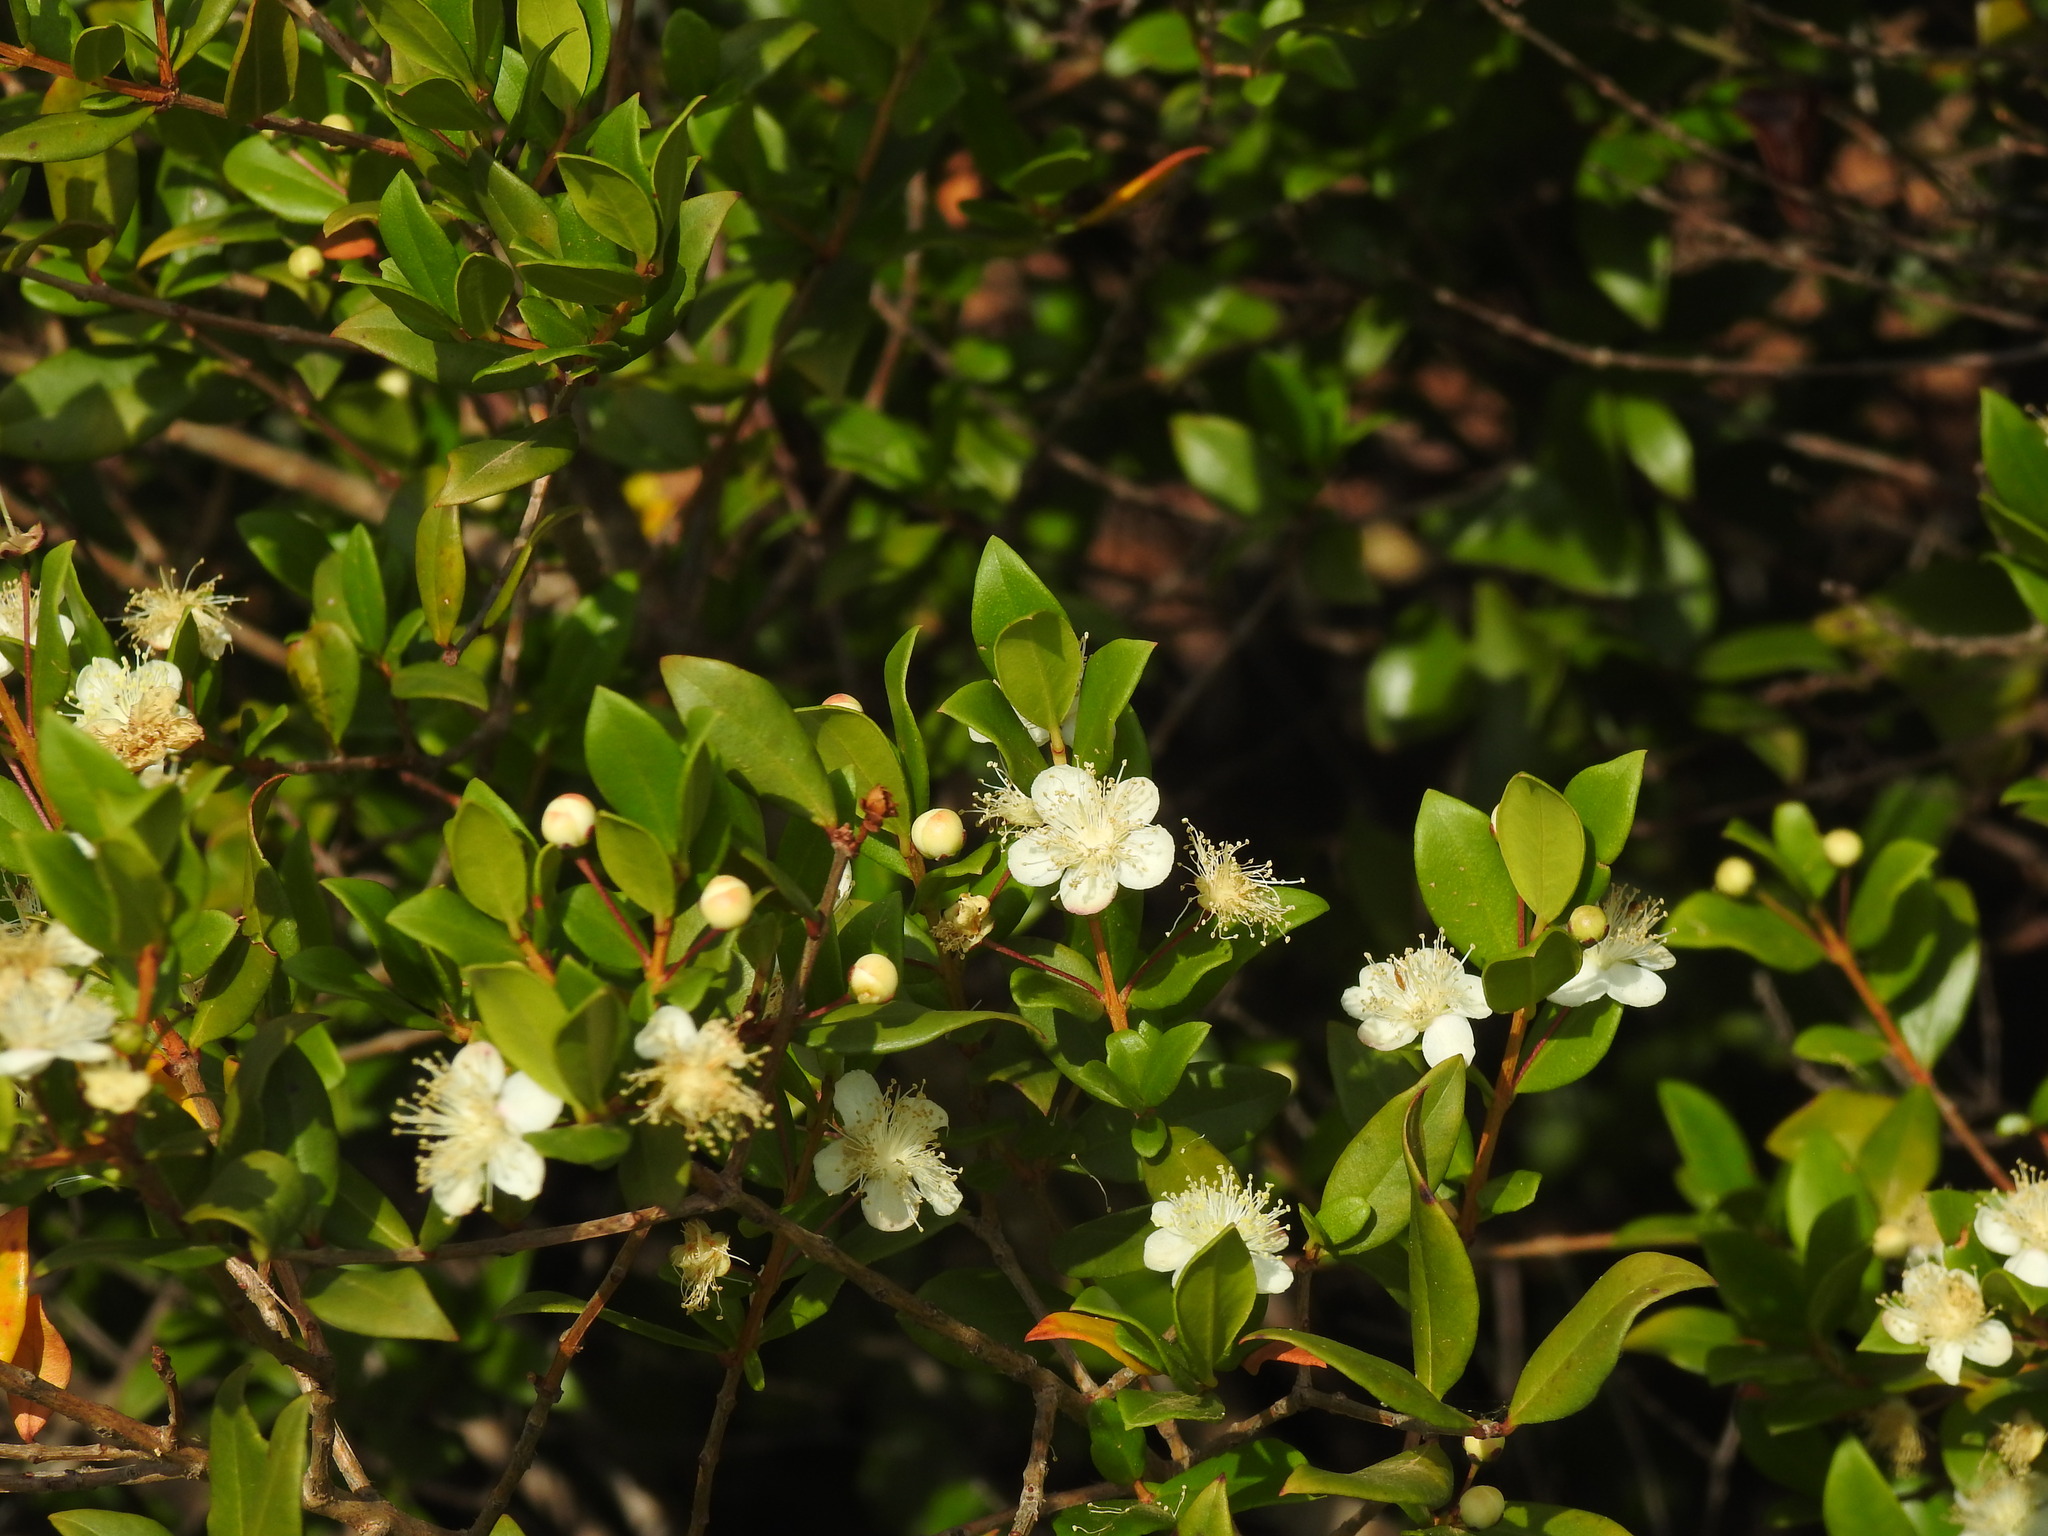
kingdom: Plantae
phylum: Tracheophyta
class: Magnoliopsida
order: Myrtales
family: Myrtaceae
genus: Myrtus
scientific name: Myrtus communis
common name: Myrtle
